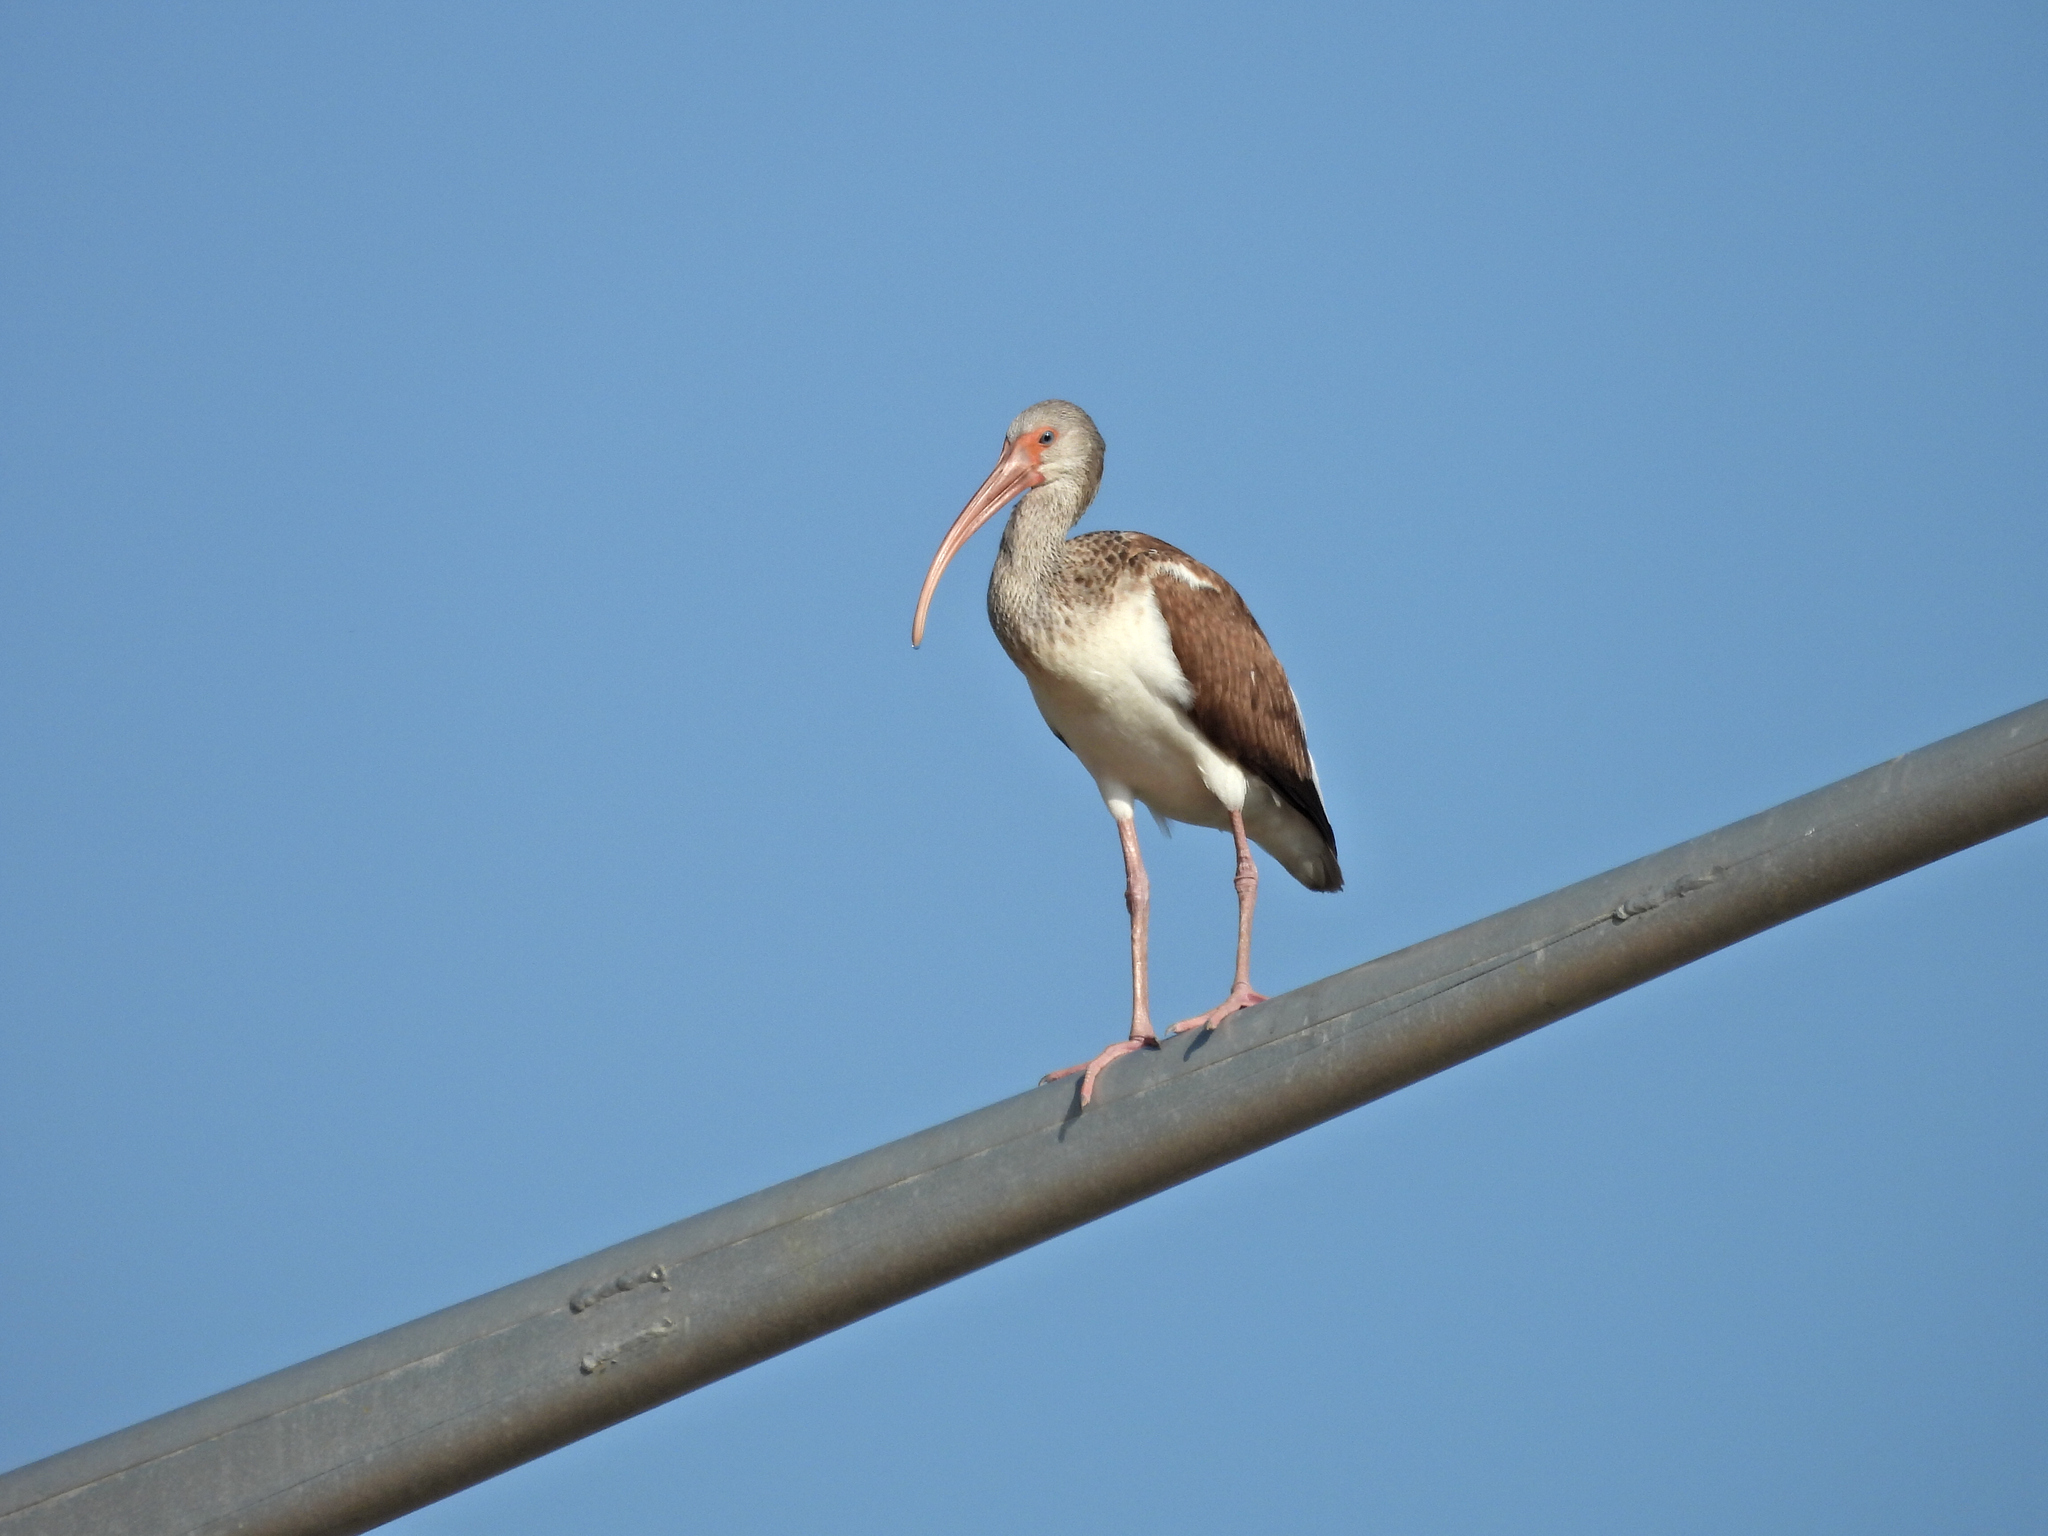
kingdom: Animalia
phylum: Chordata
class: Aves
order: Pelecaniformes
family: Threskiornithidae
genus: Eudocimus
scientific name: Eudocimus albus
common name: White ibis
